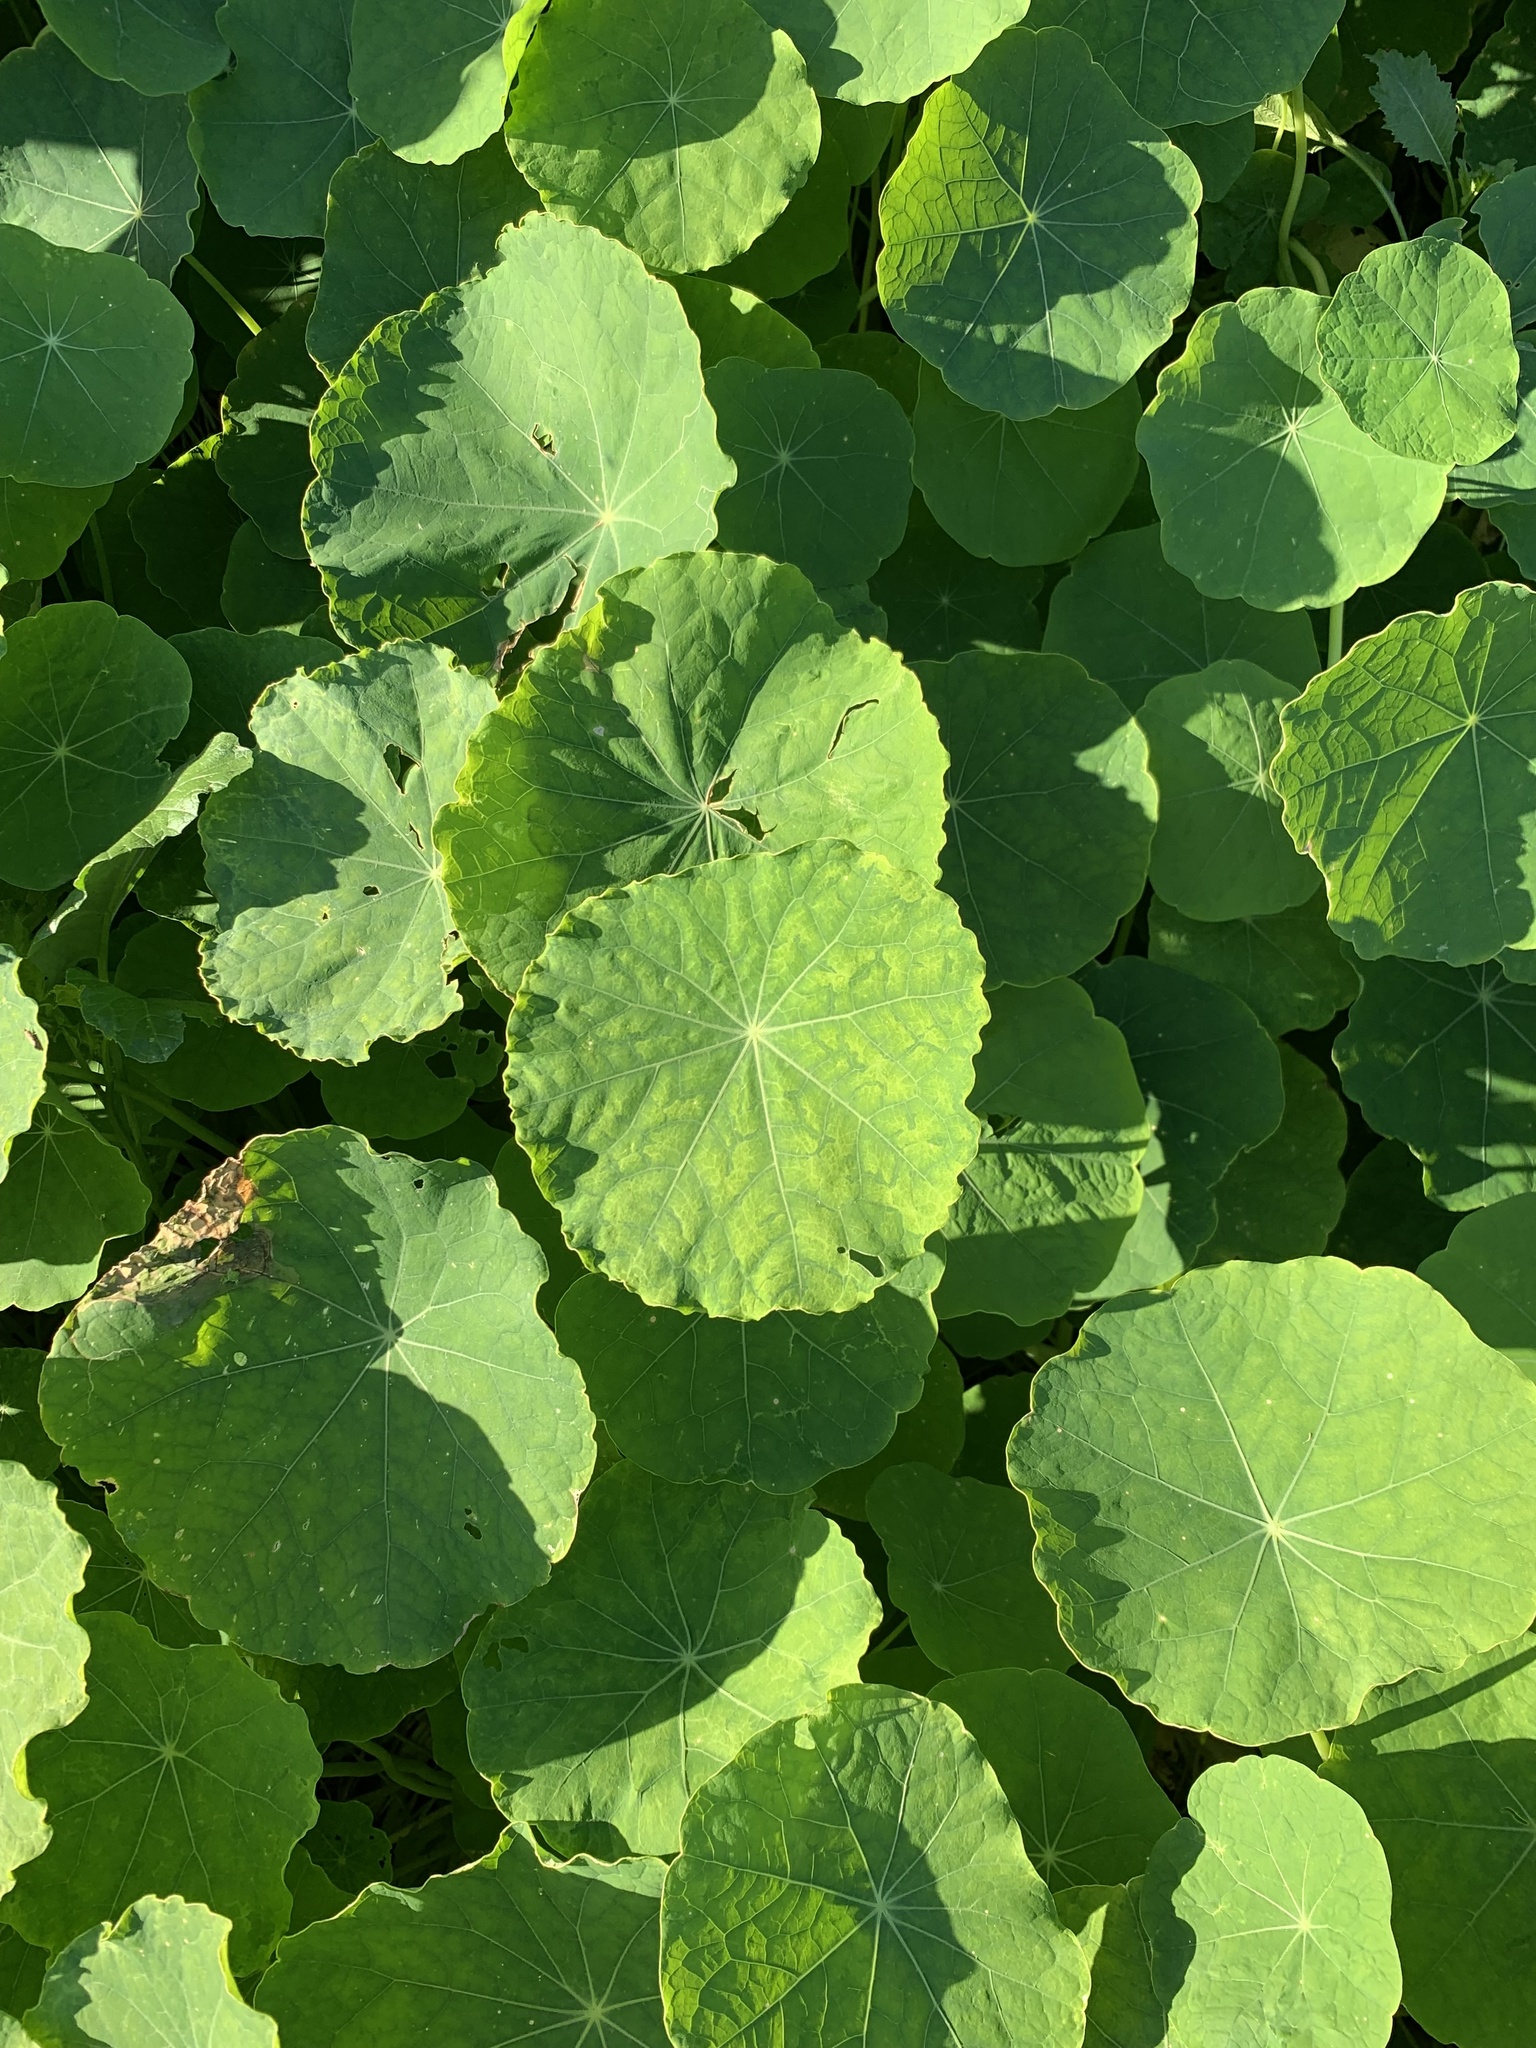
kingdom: Plantae
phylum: Tracheophyta
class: Magnoliopsida
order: Brassicales
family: Tropaeolaceae
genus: Tropaeolum
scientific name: Tropaeolum majus
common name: Nasturtium
